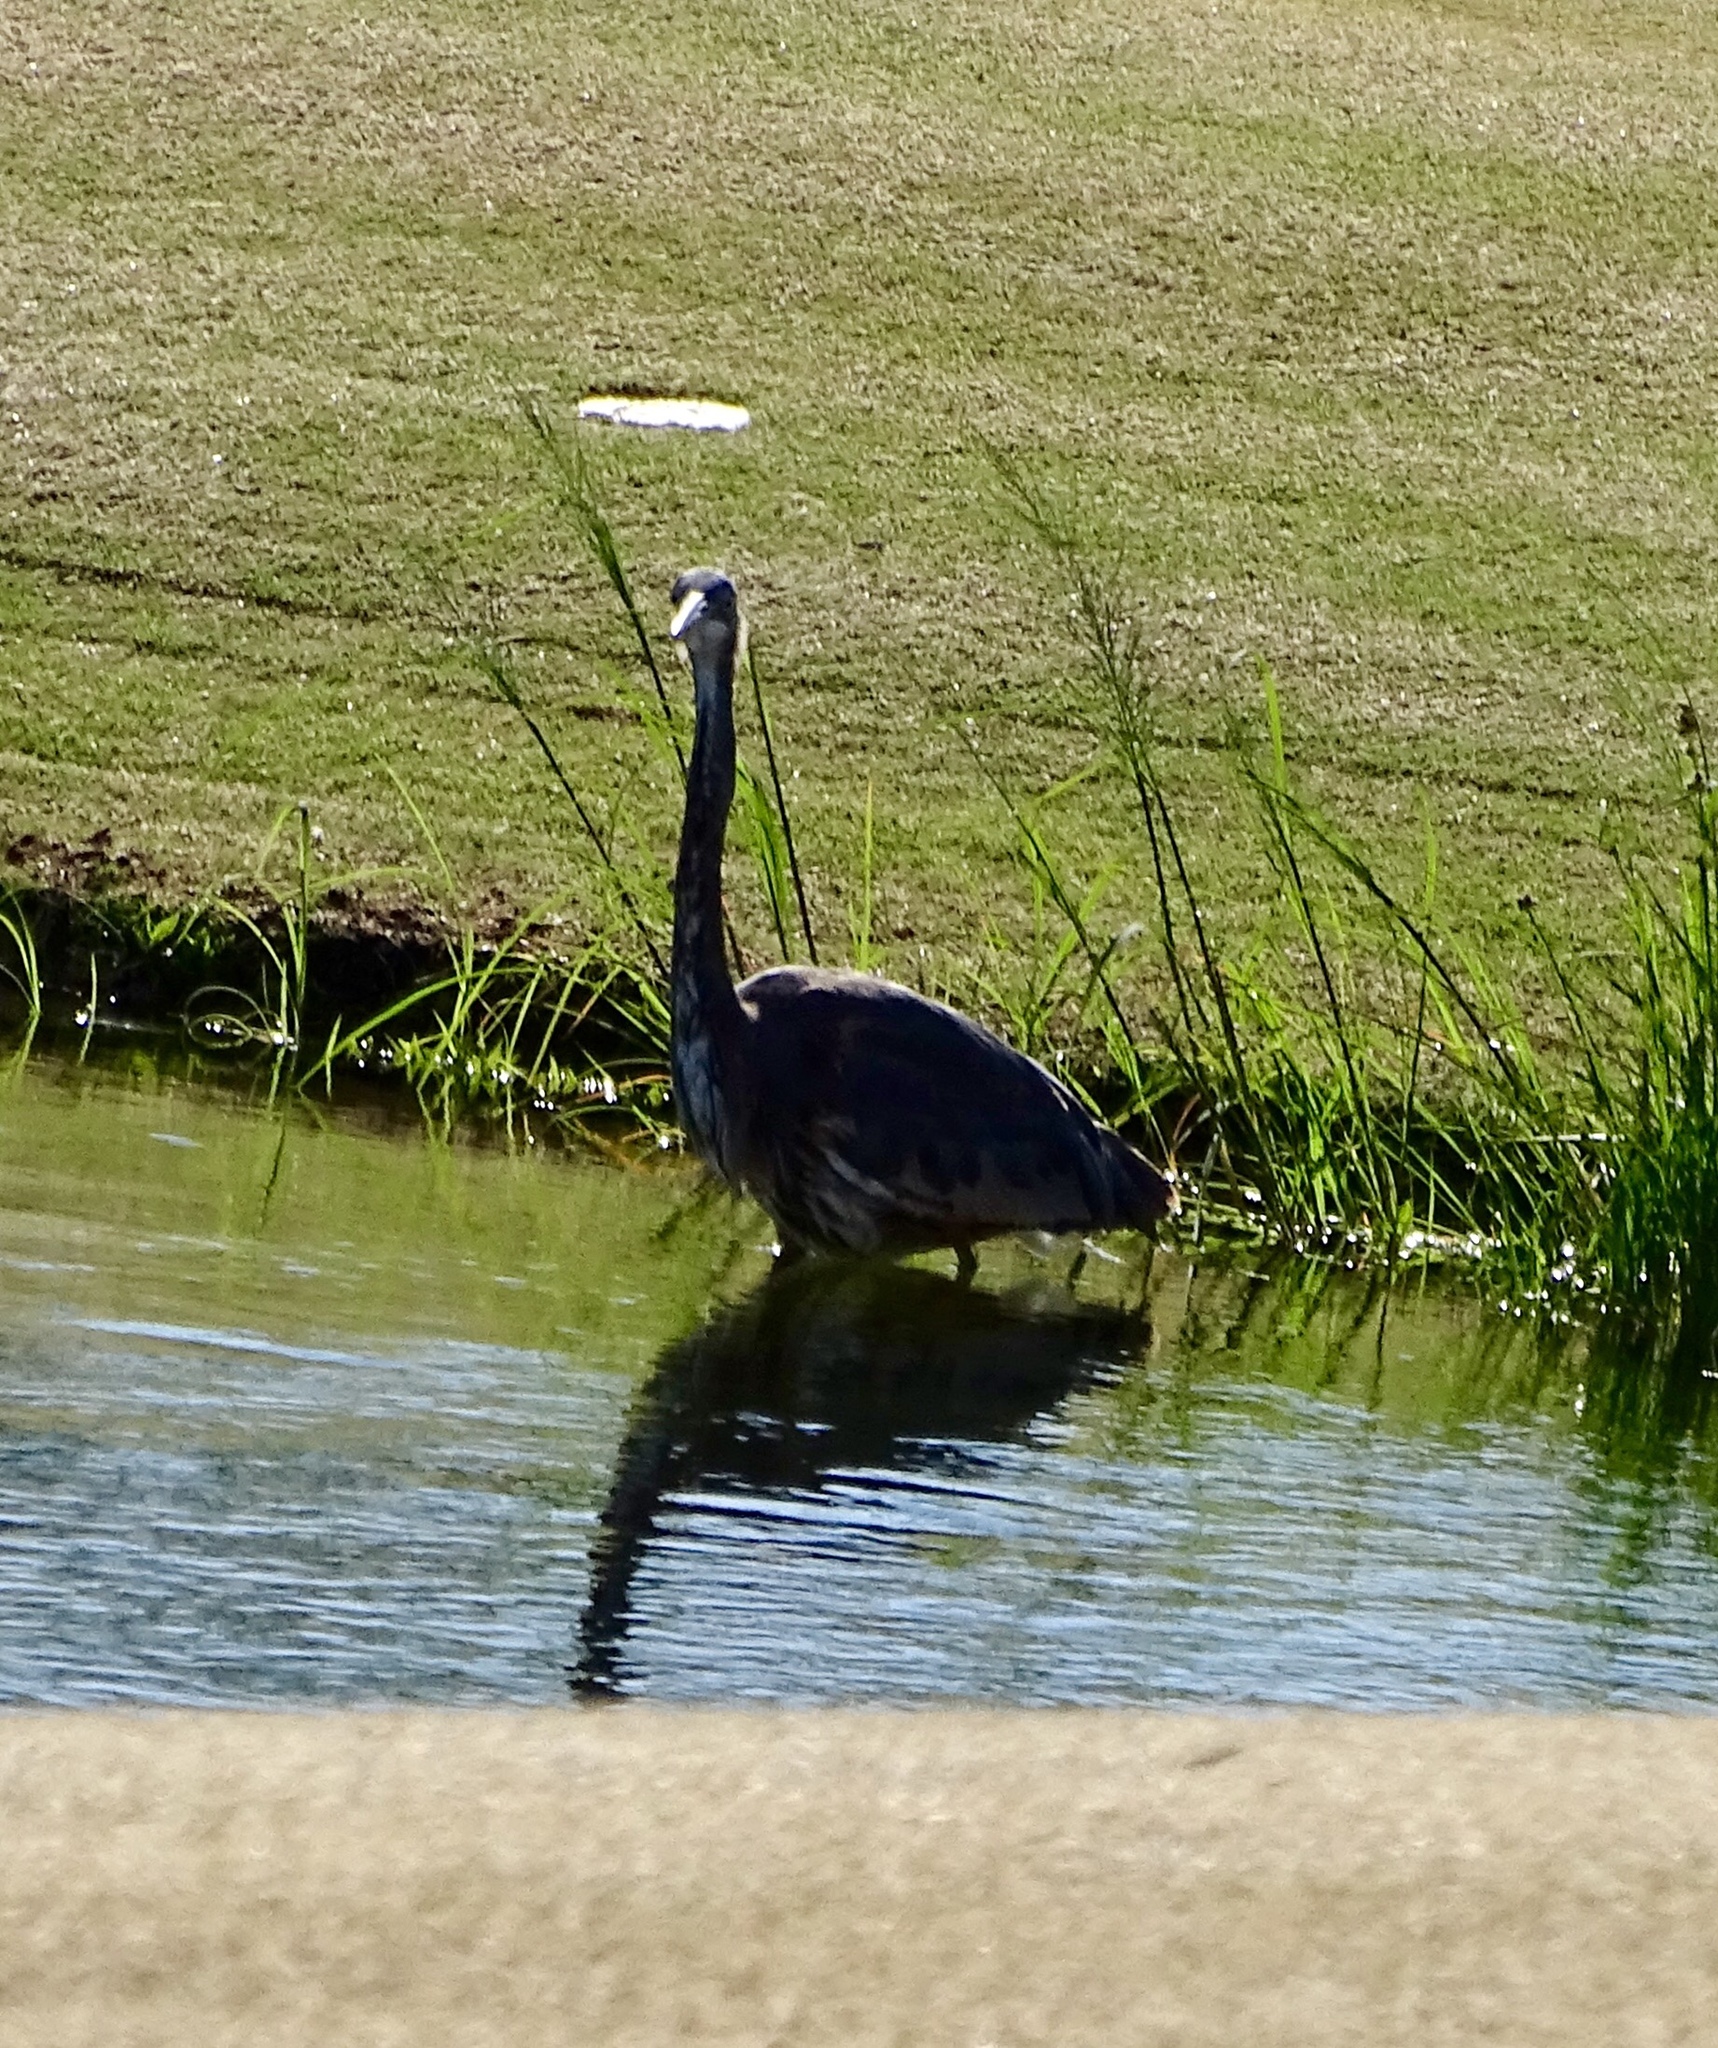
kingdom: Animalia
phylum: Chordata
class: Aves
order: Pelecaniformes
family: Ardeidae
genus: Ardea
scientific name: Ardea herodias
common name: Great blue heron
